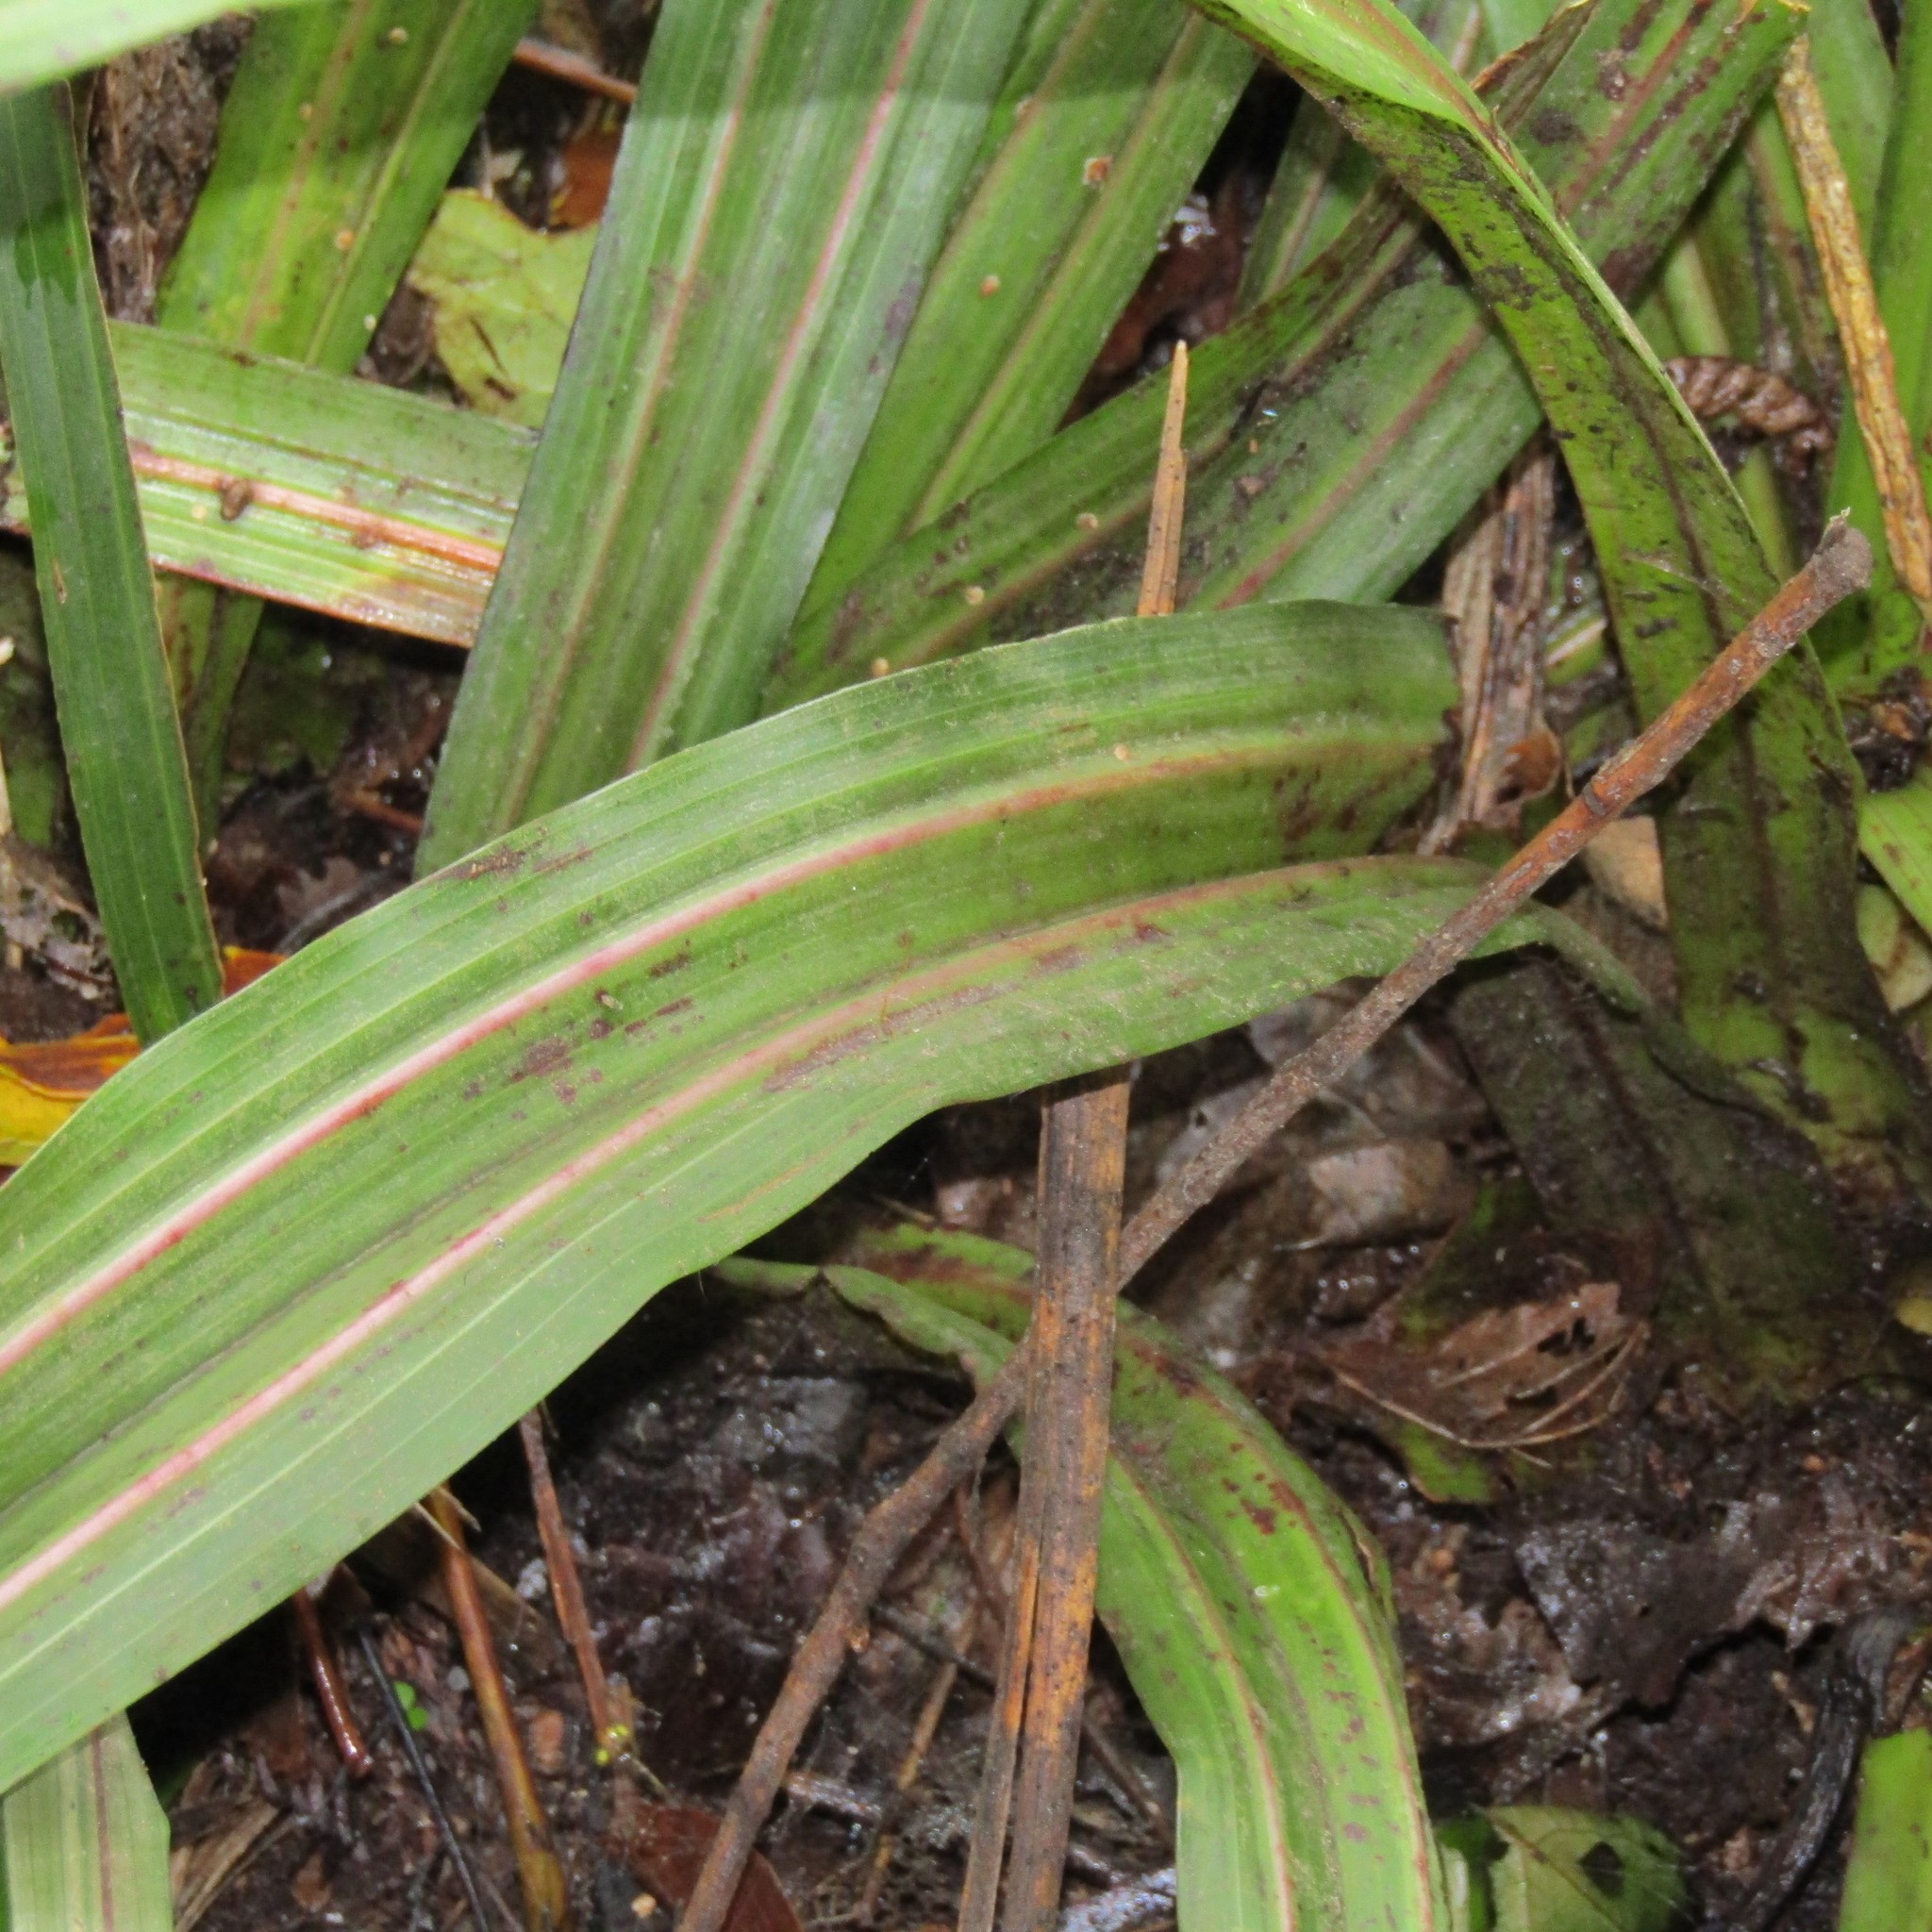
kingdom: Plantae
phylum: Tracheophyta
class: Liliopsida
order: Asparagales
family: Asteliaceae
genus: Astelia
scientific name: Astelia fragrans
